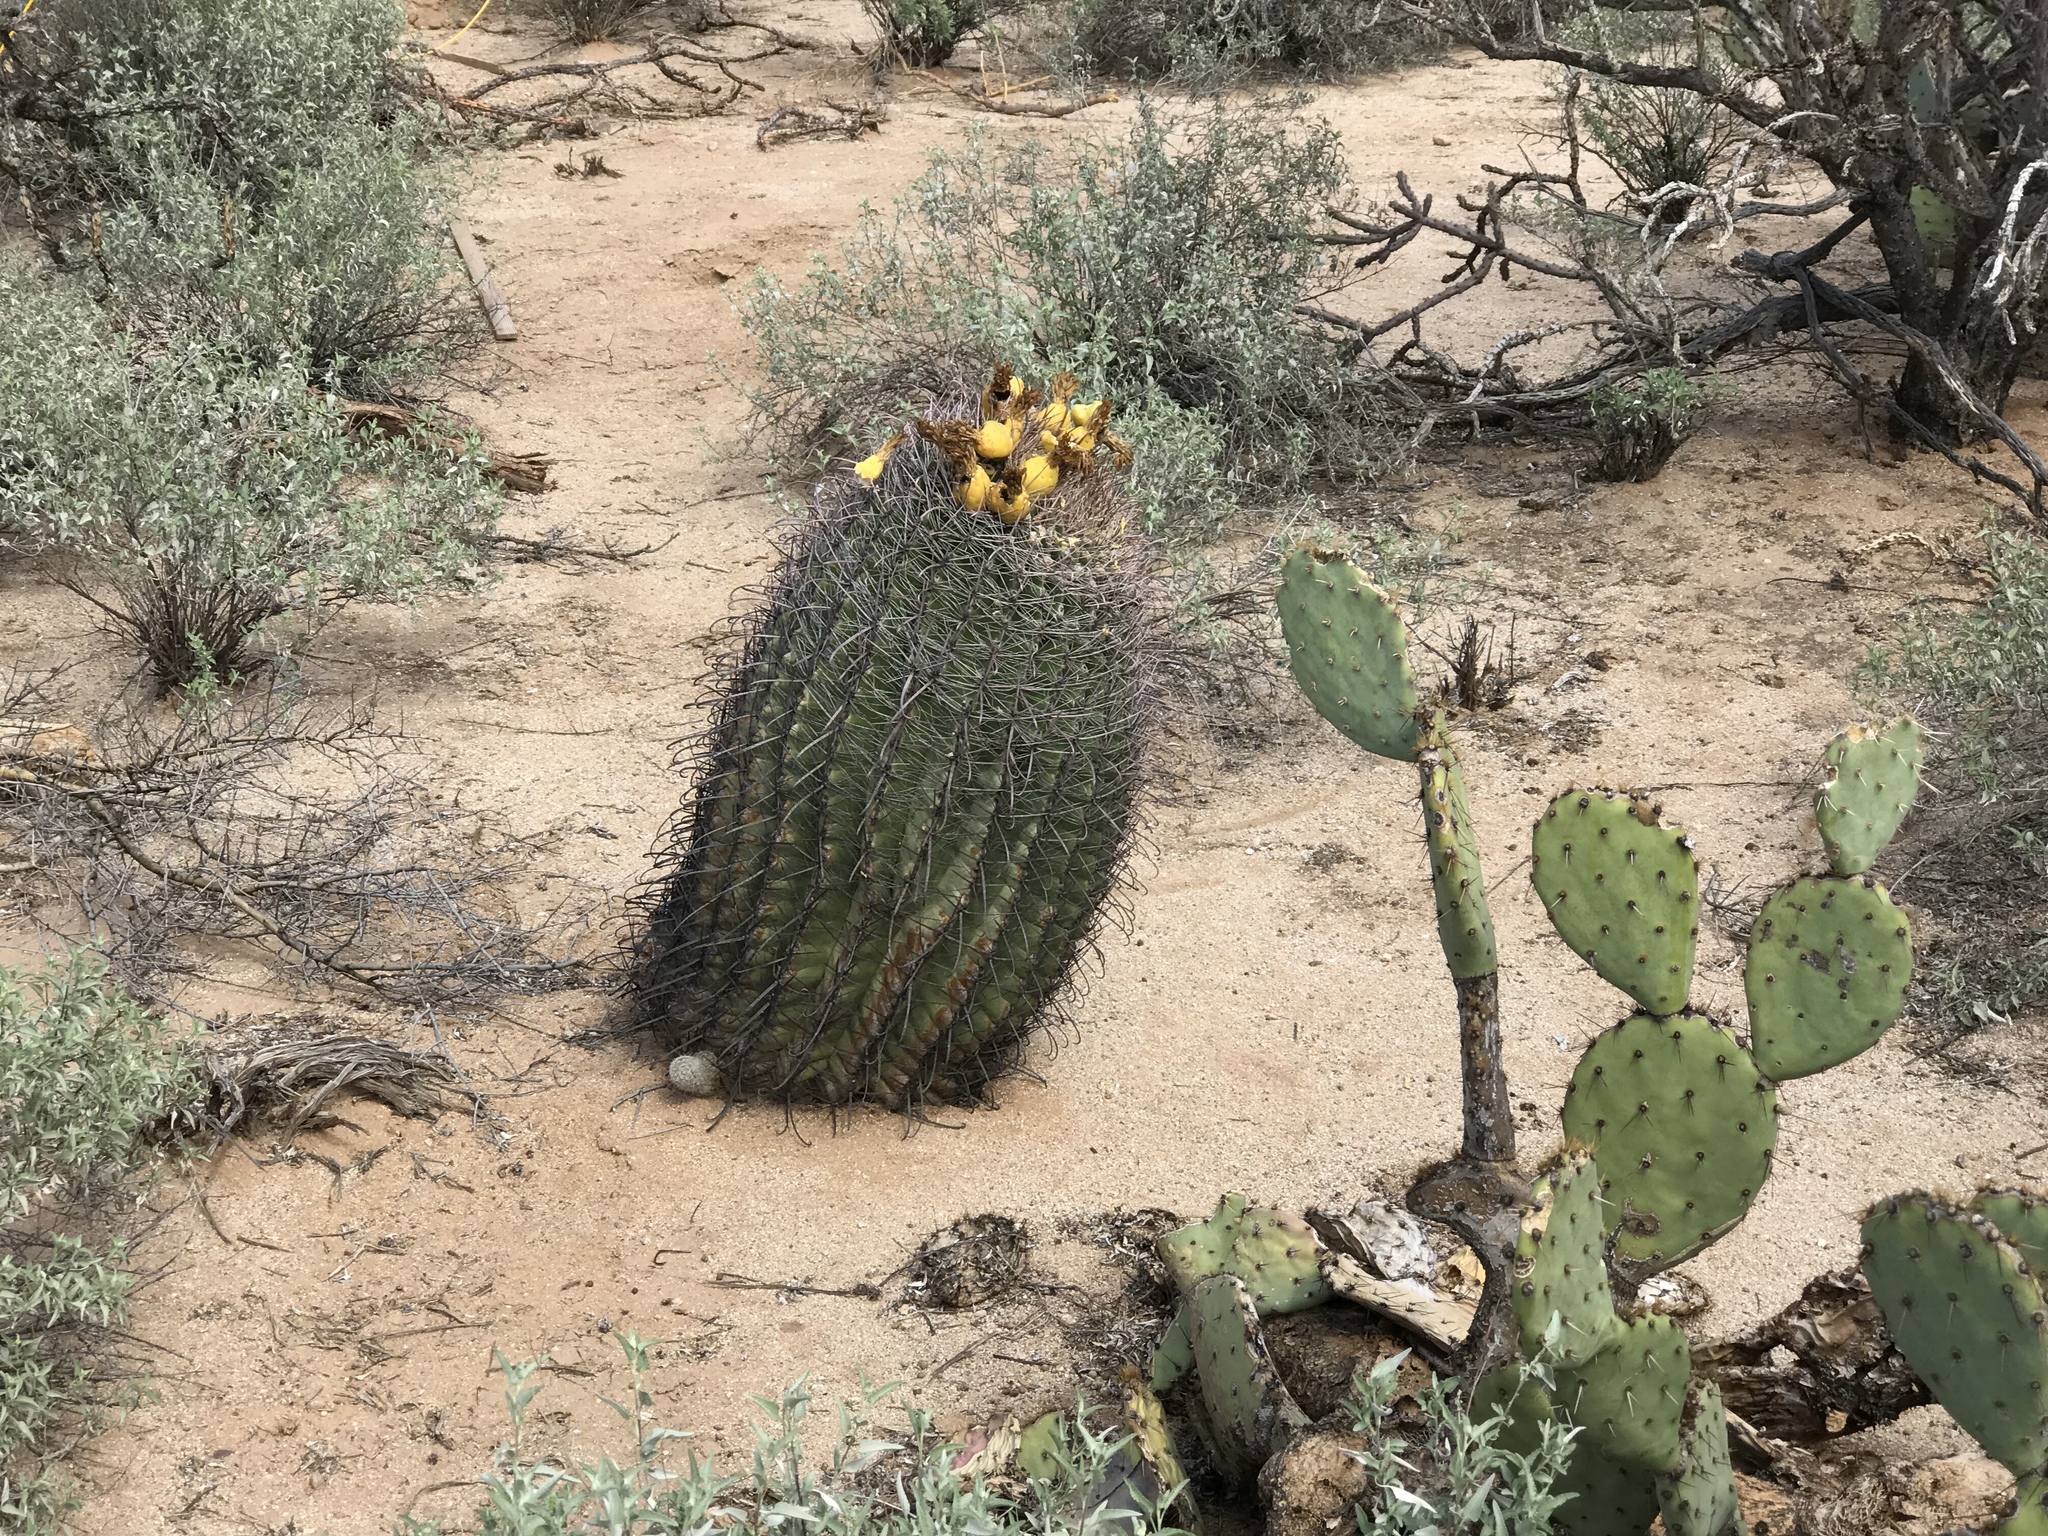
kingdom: Plantae
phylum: Tracheophyta
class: Magnoliopsida
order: Caryophyllales
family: Cactaceae
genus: Ferocactus
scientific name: Ferocactus wislizeni
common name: Candy barrel cactus
